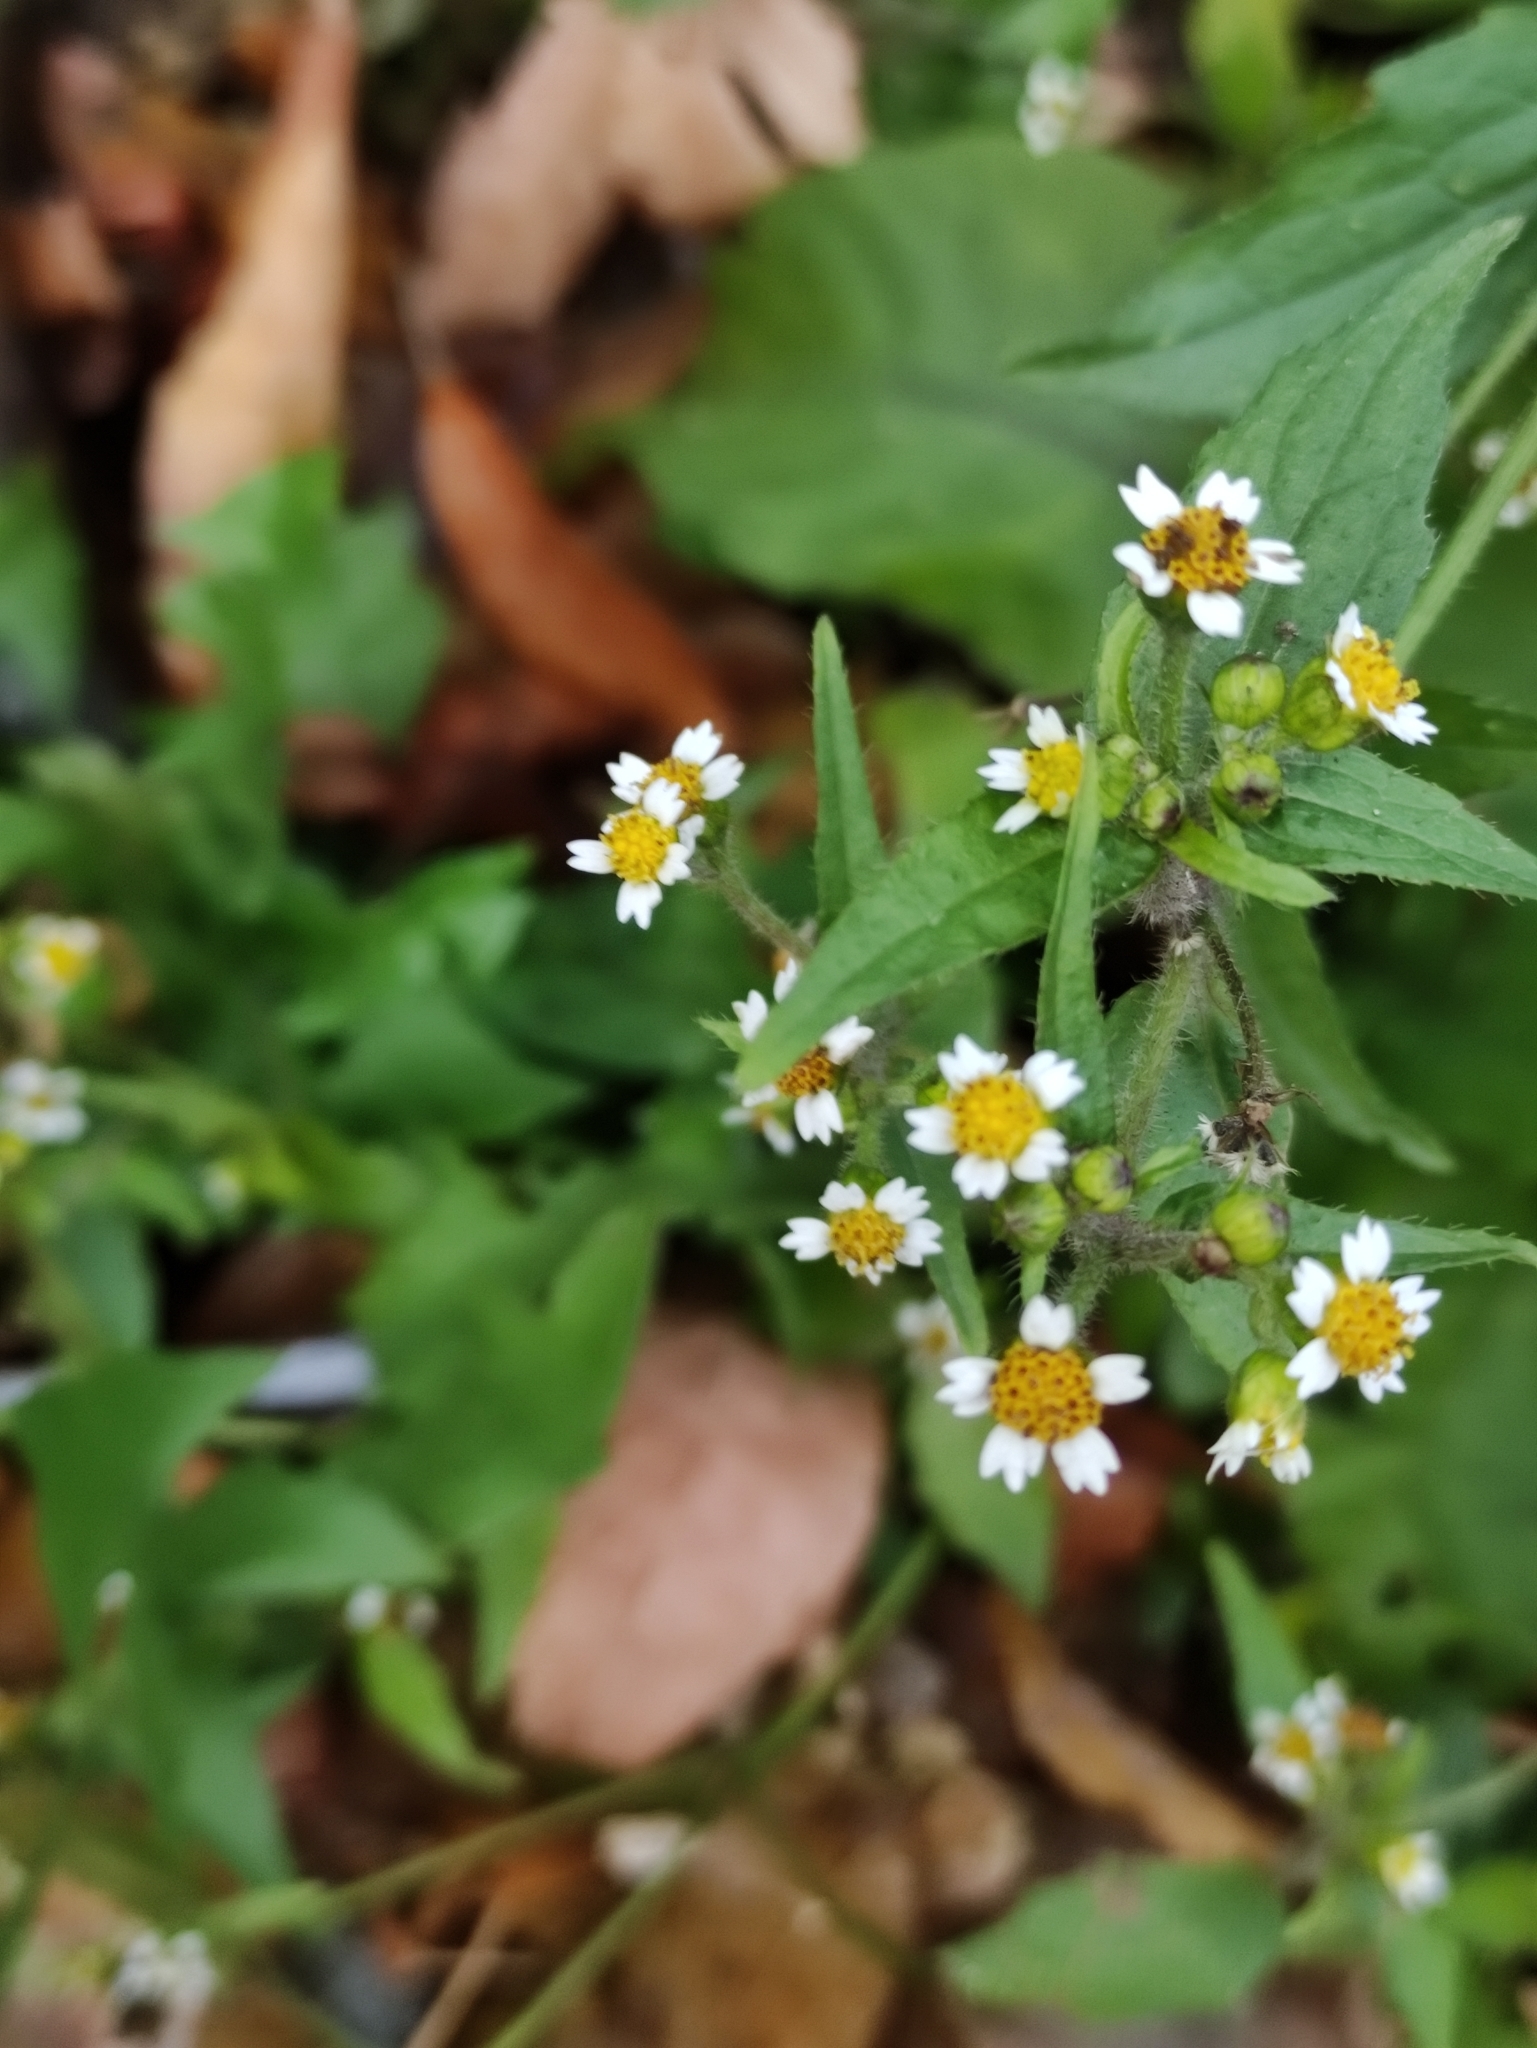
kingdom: Plantae
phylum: Tracheophyta
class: Magnoliopsida
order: Asterales
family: Asteraceae
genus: Galinsoga
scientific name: Galinsoga quadriradiata
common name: Shaggy soldier
